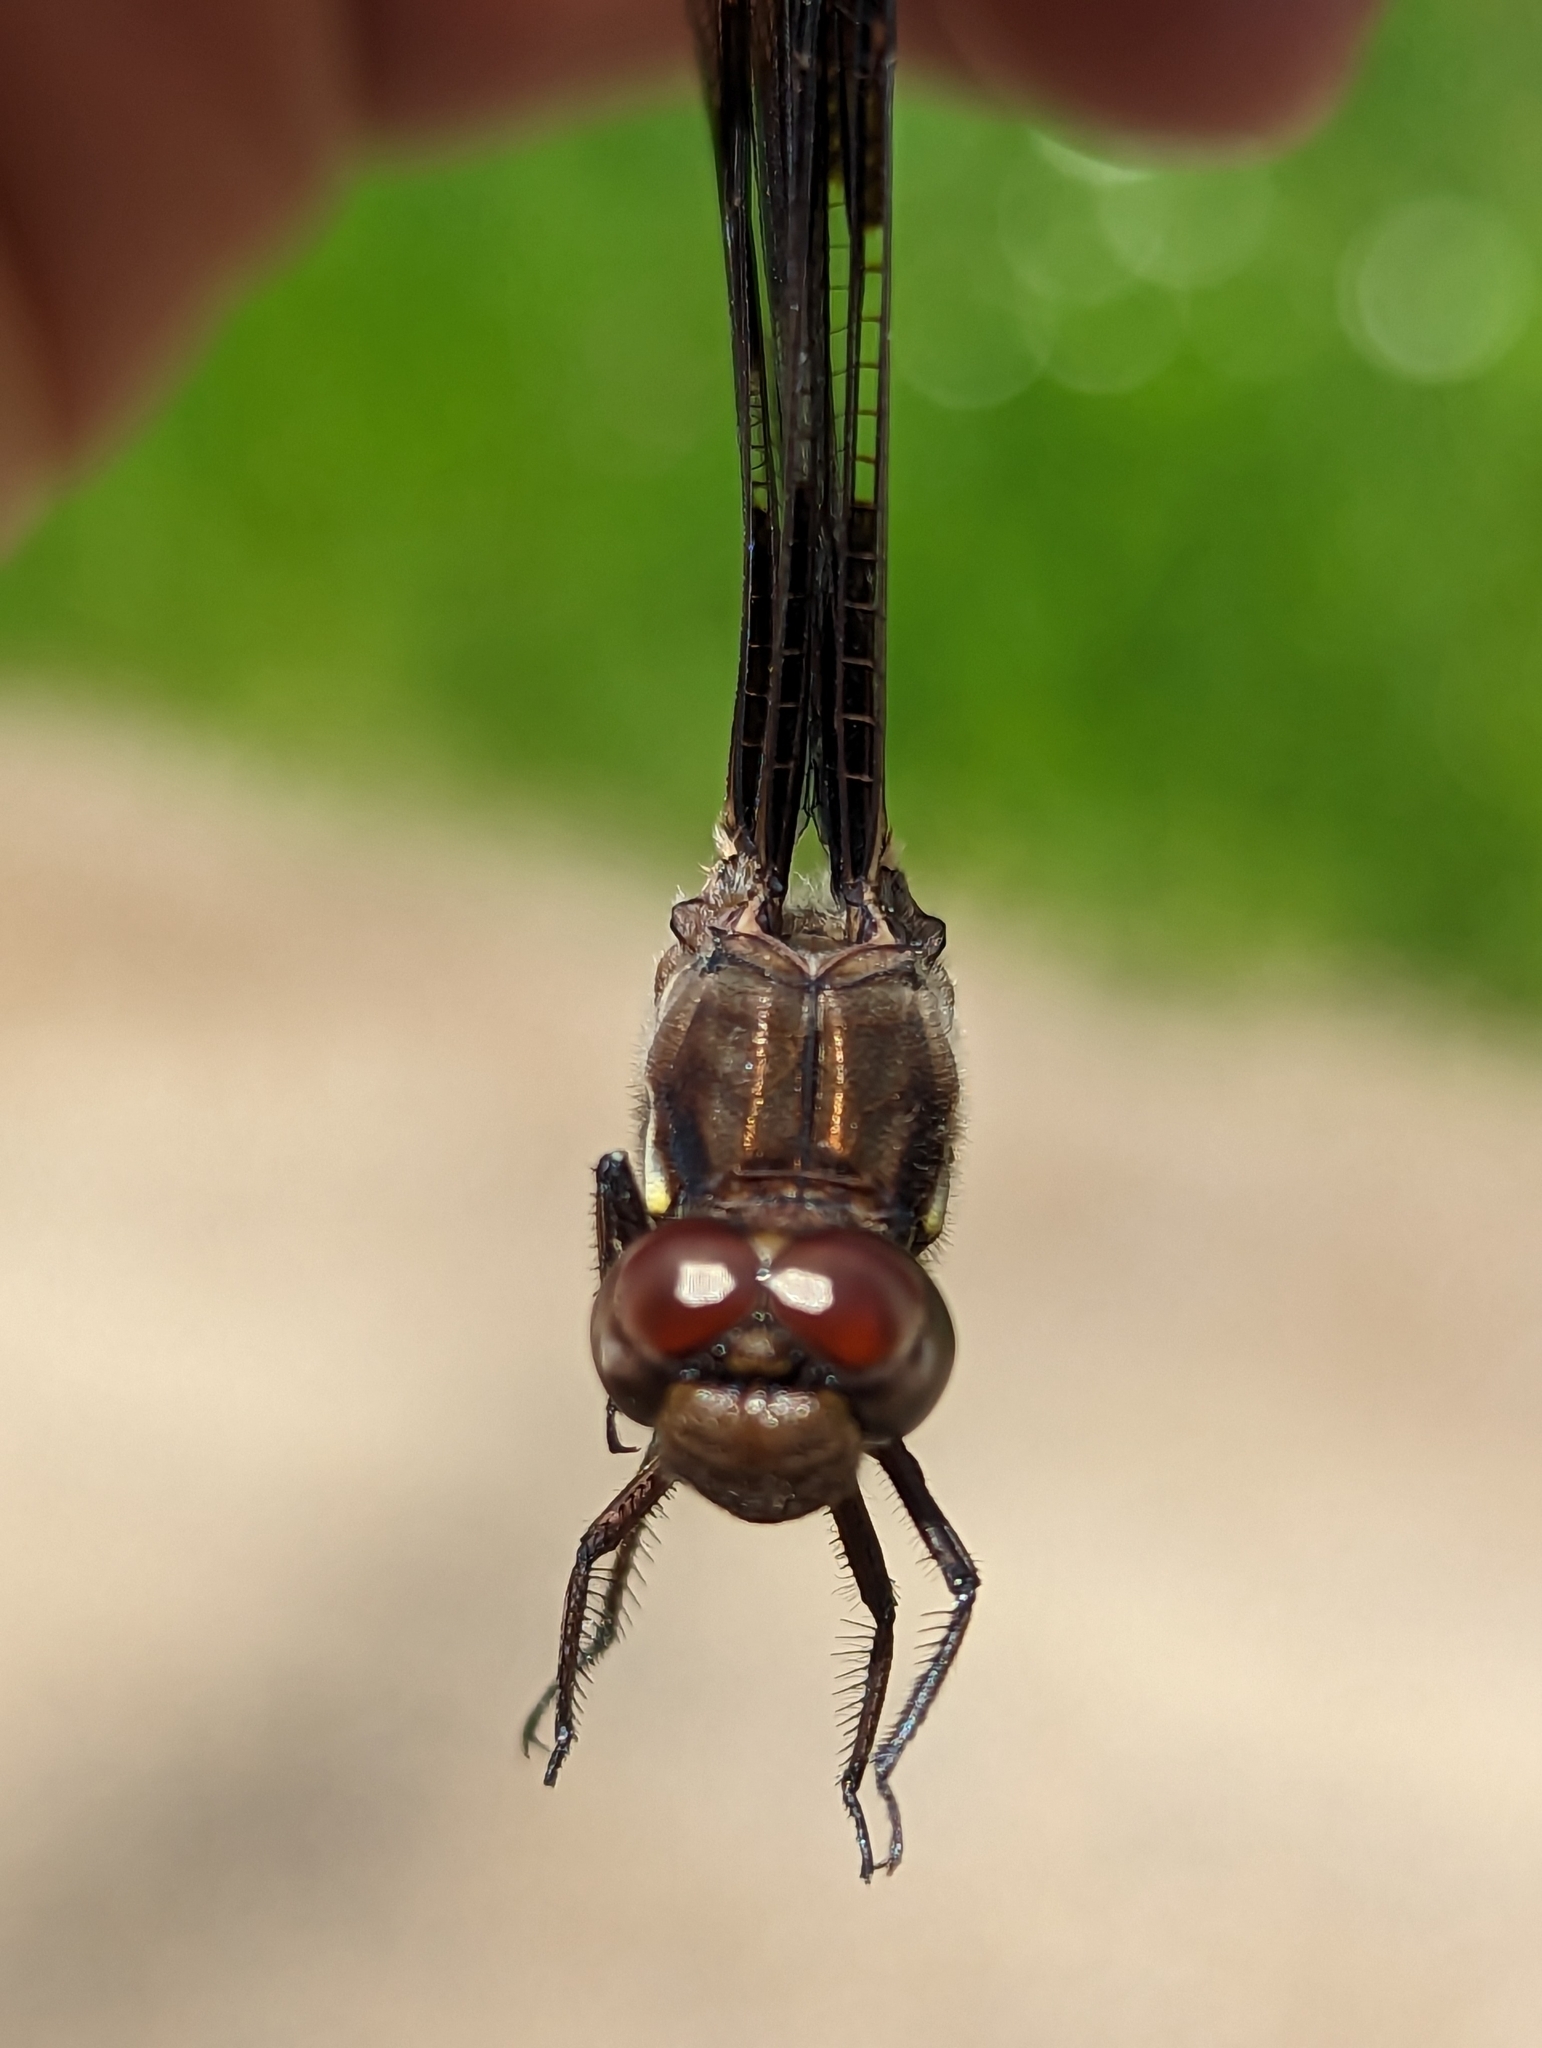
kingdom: Animalia
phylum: Arthropoda
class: Insecta
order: Odonata
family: Libellulidae
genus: Plathemis
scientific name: Plathemis lydia
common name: Common whitetail
